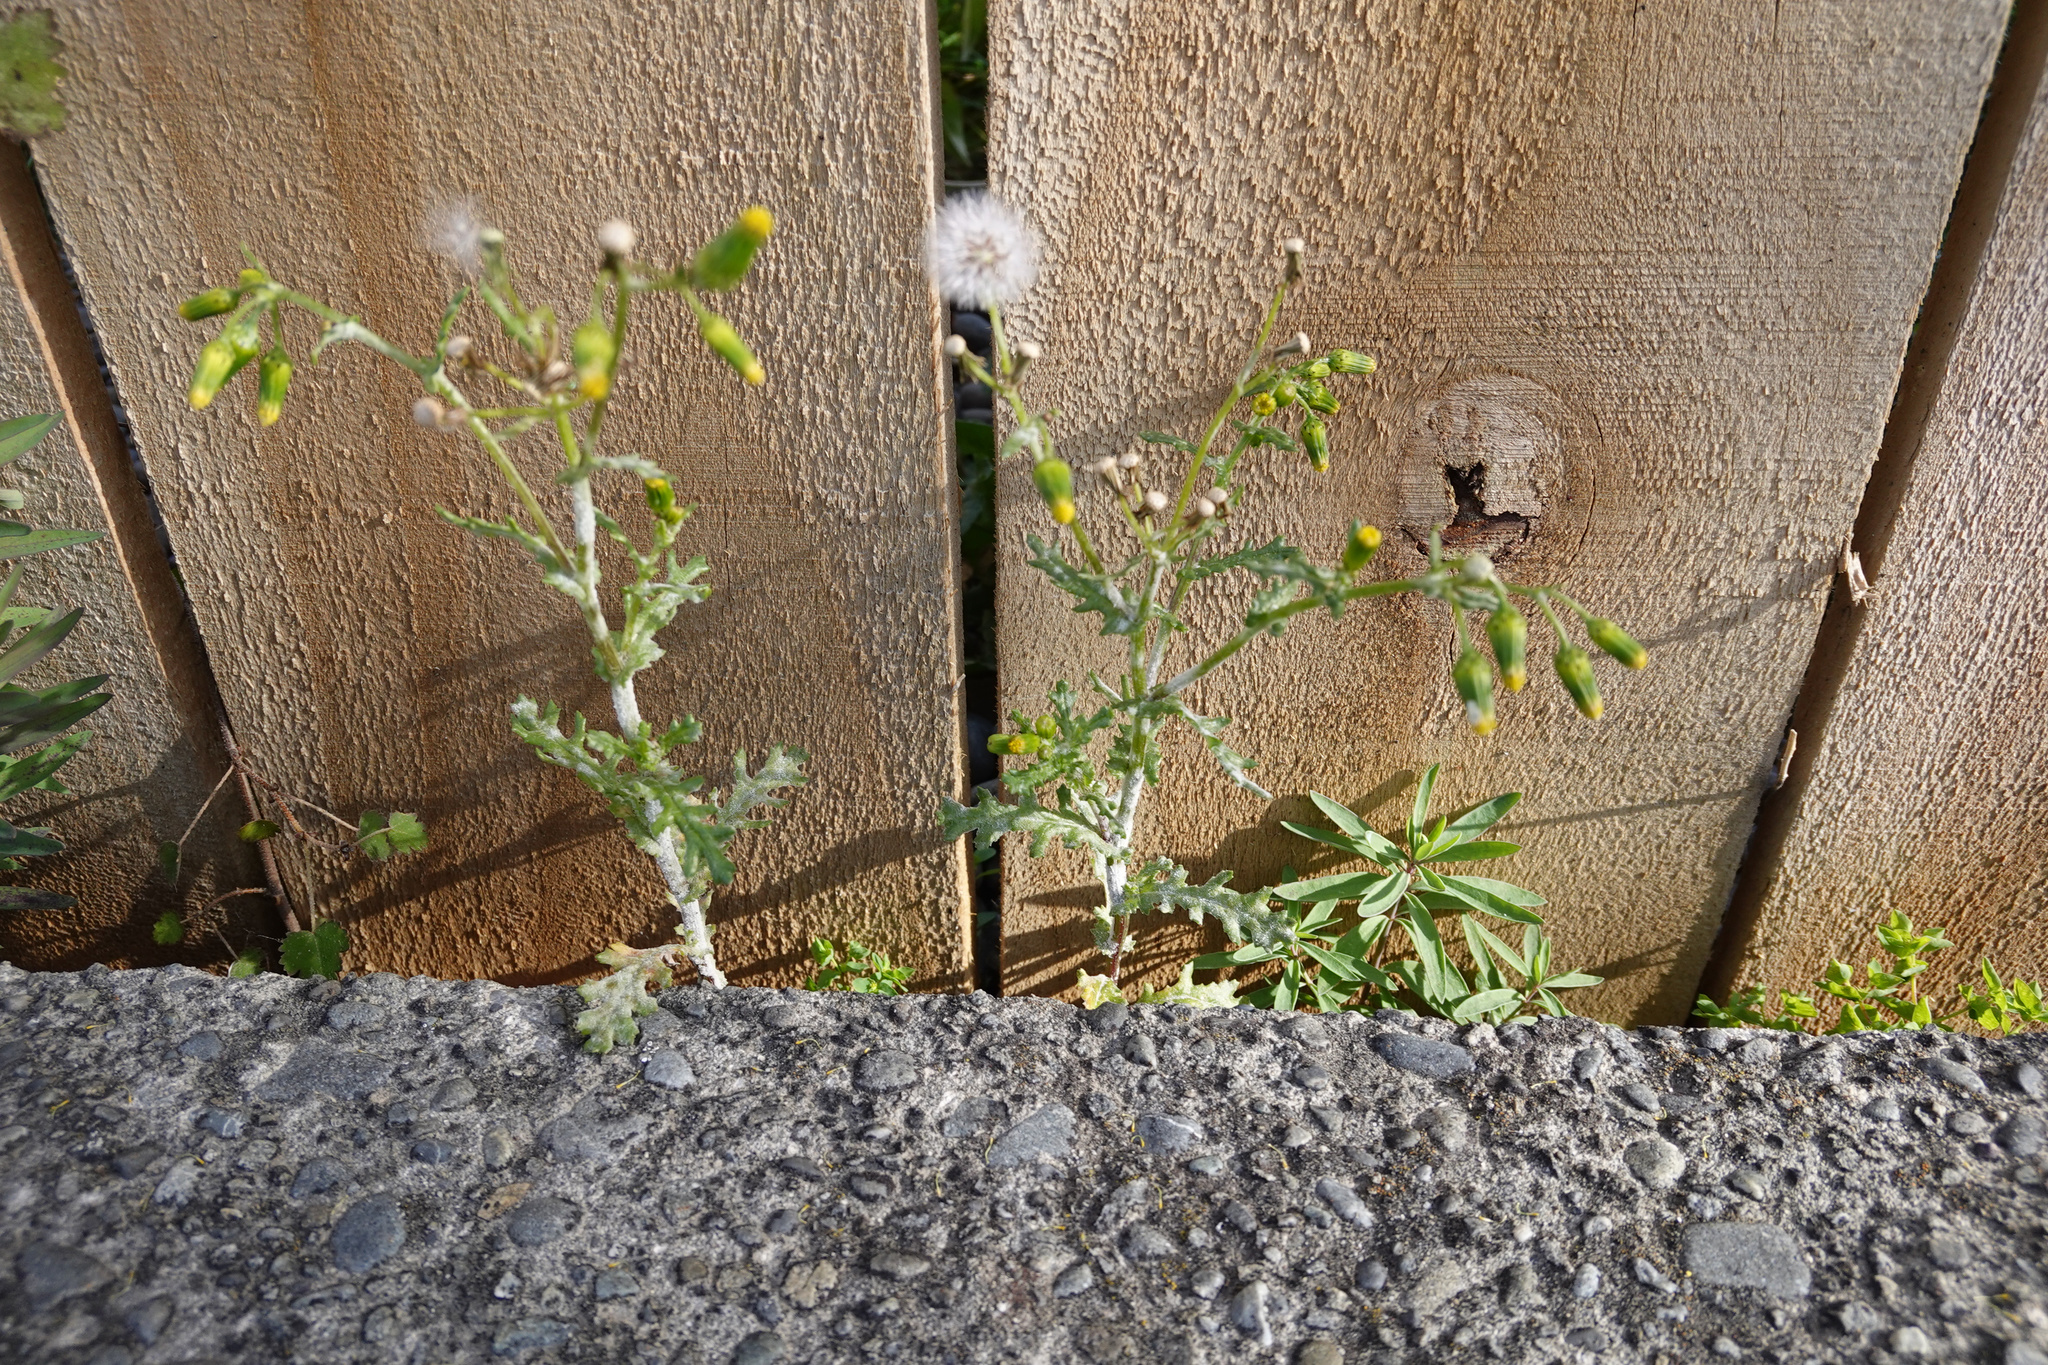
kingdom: Plantae
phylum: Tracheophyta
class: Magnoliopsida
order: Asterales
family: Asteraceae
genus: Senecio
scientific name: Senecio vulgaris
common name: Old-man-in-the-spring
